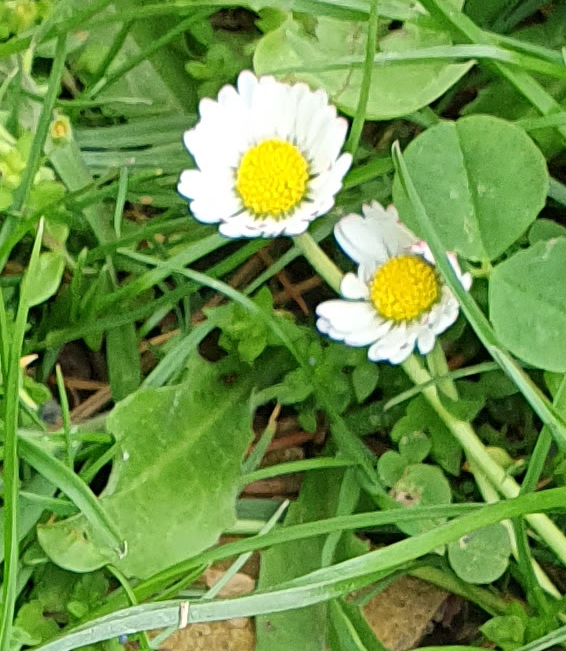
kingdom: Plantae
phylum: Tracheophyta
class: Magnoliopsida
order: Asterales
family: Asteraceae
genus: Bellis
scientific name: Bellis perennis
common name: Lawndaisy
